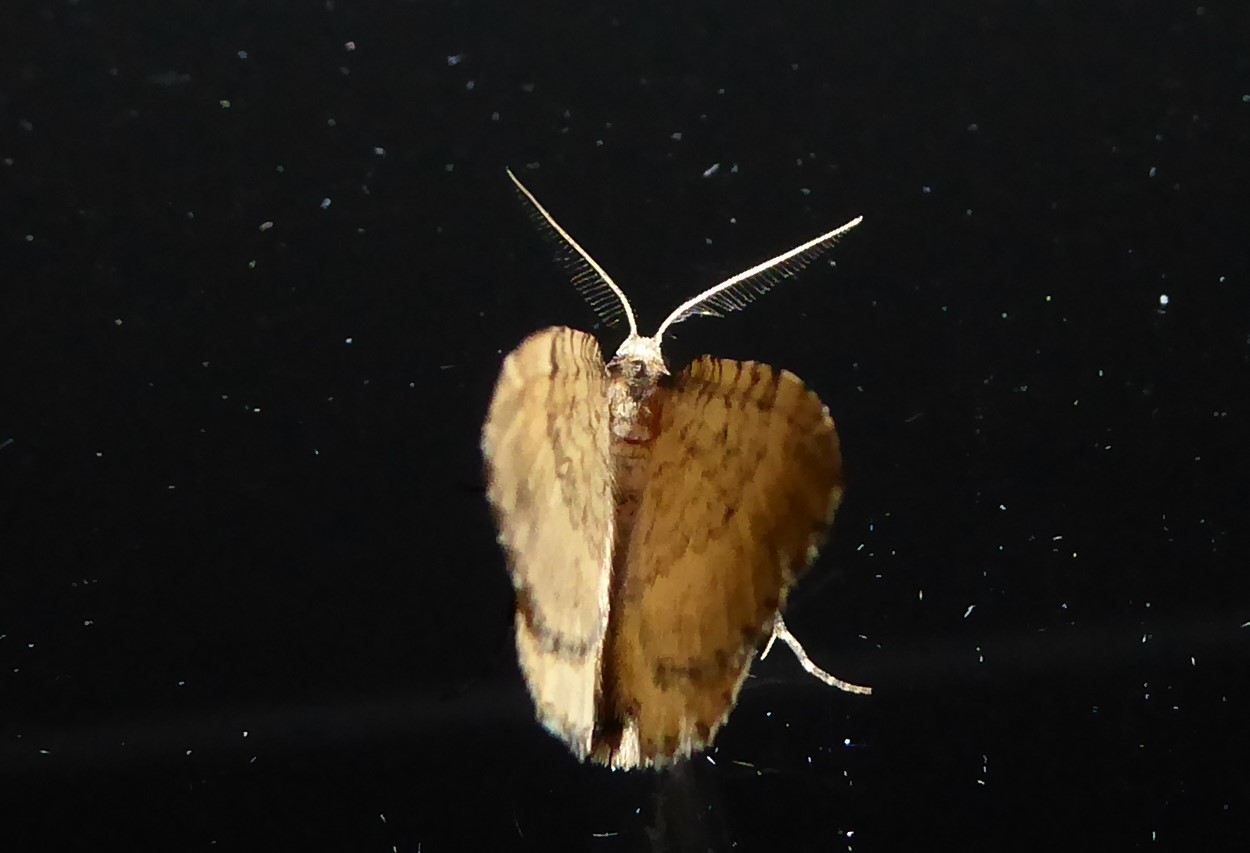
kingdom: Animalia
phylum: Arthropoda
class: Insecta
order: Lepidoptera
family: Geometridae
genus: Asaphodes
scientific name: Asaphodes aegrota
